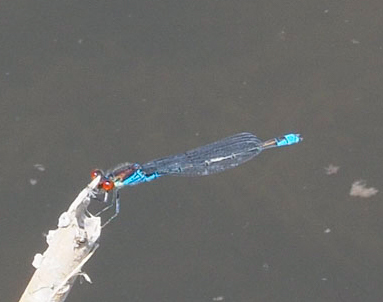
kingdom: Animalia
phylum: Arthropoda
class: Insecta
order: Odonata
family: Coenagrionidae
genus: Erythromma
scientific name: Erythromma viridulum
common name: Small red-eyed damselfly
